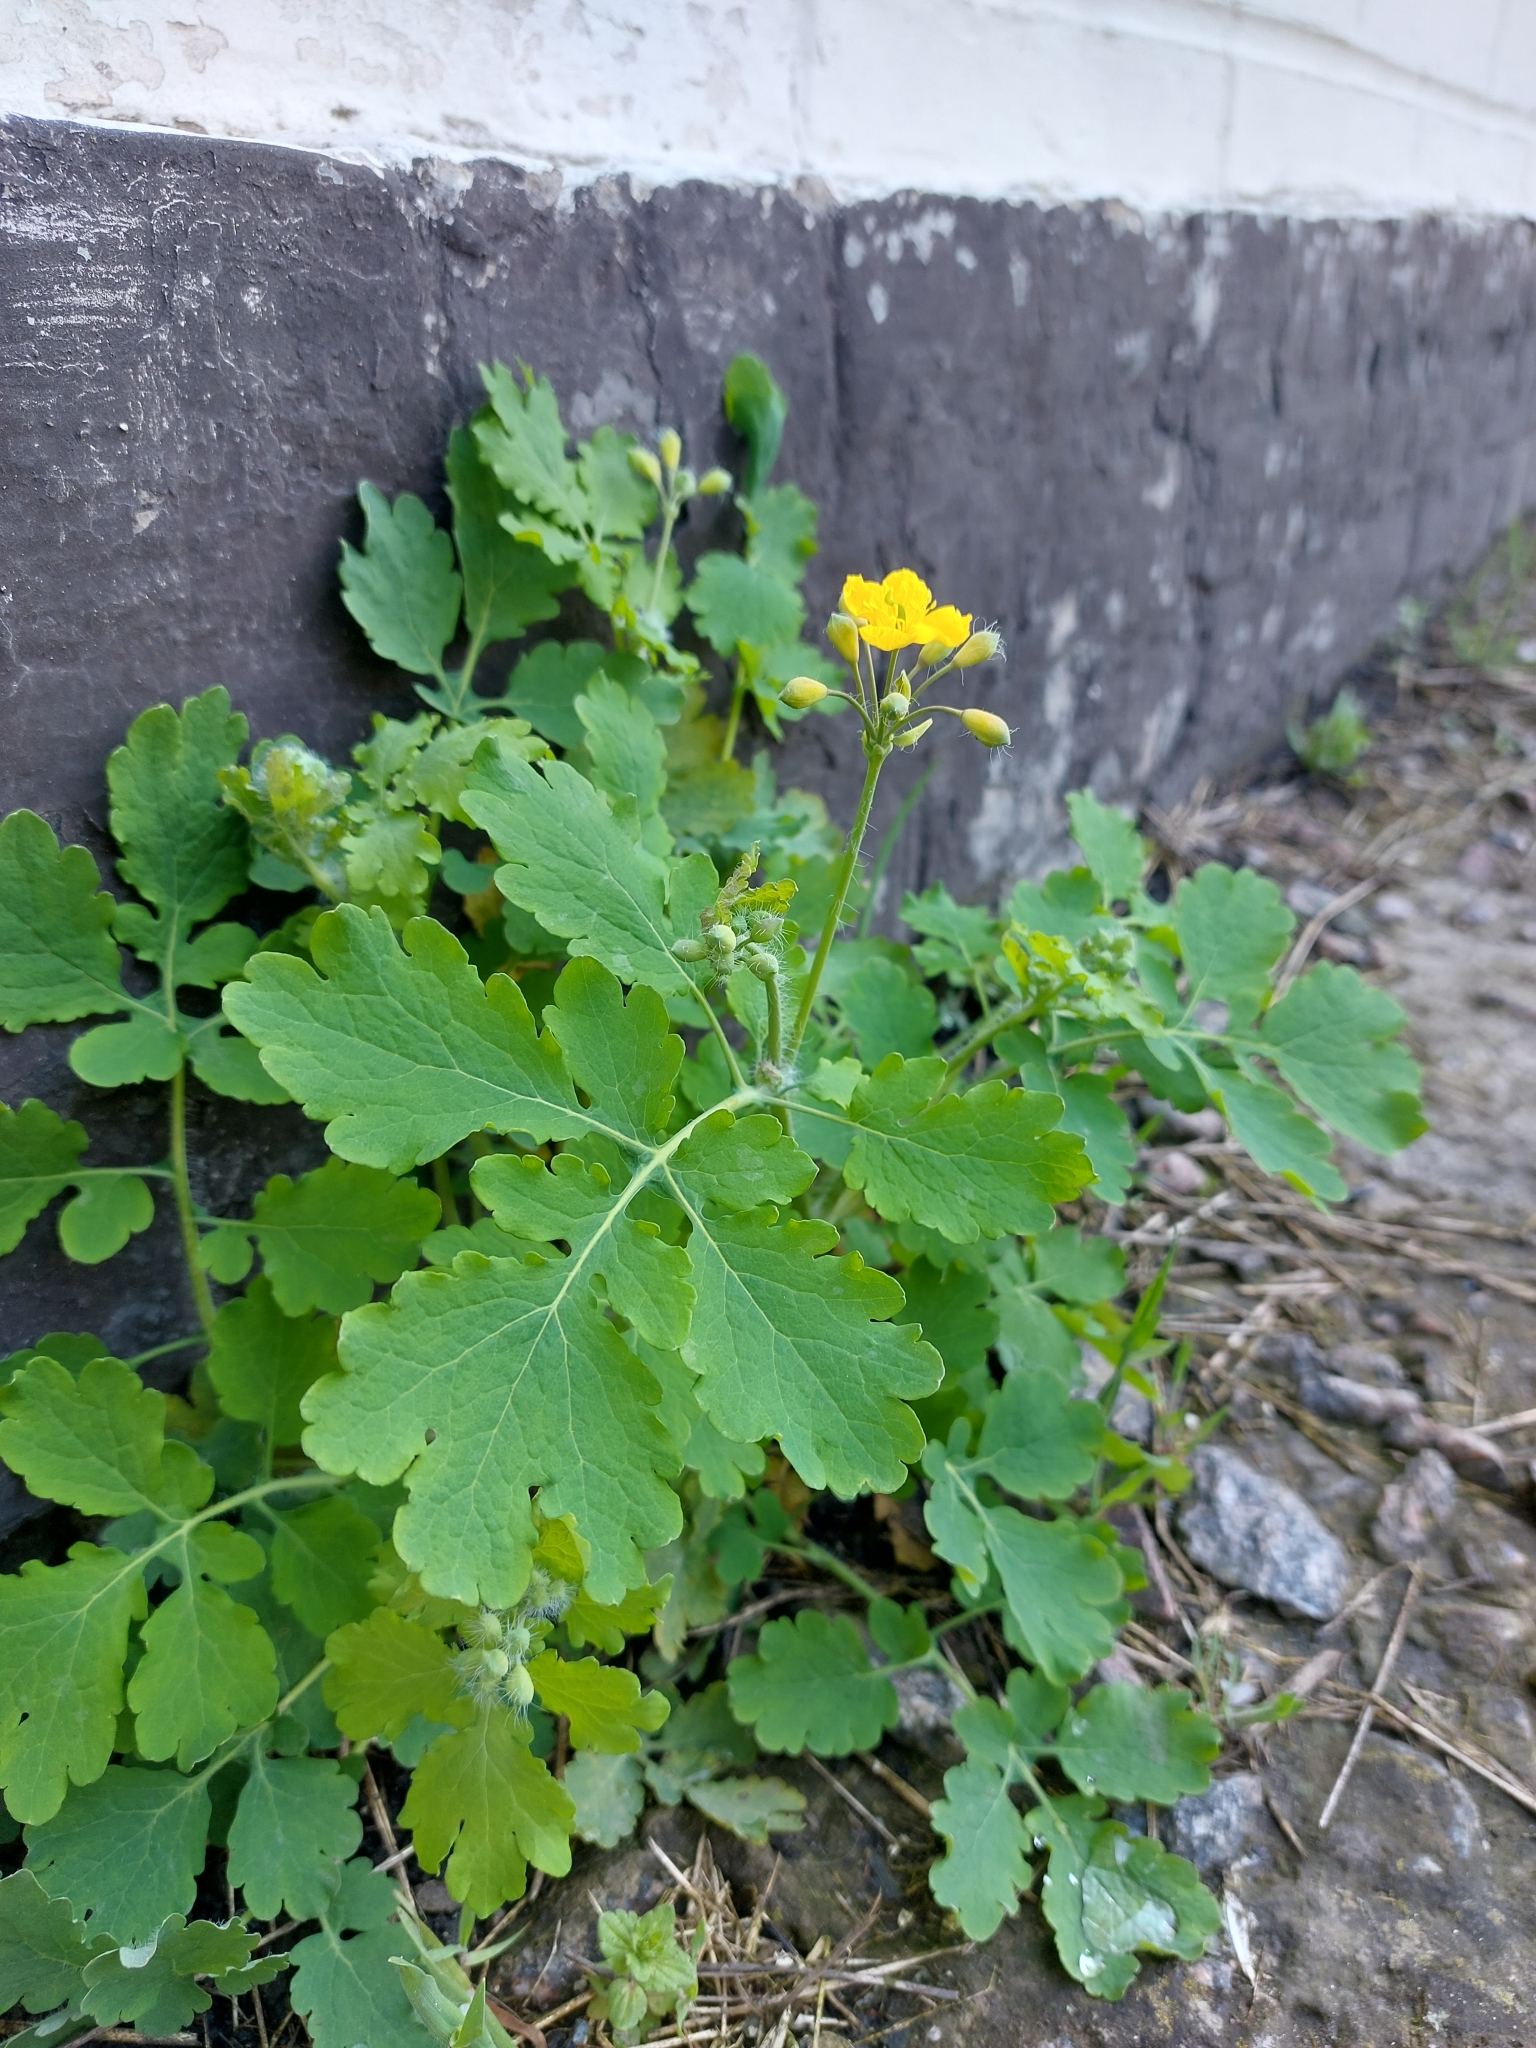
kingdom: Plantae
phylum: Tracheophyta
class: Magnoliopsida
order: Ranunculales
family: Papaveraceae
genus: Chelidonium
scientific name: Chelidonium majus
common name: Greater celandine
